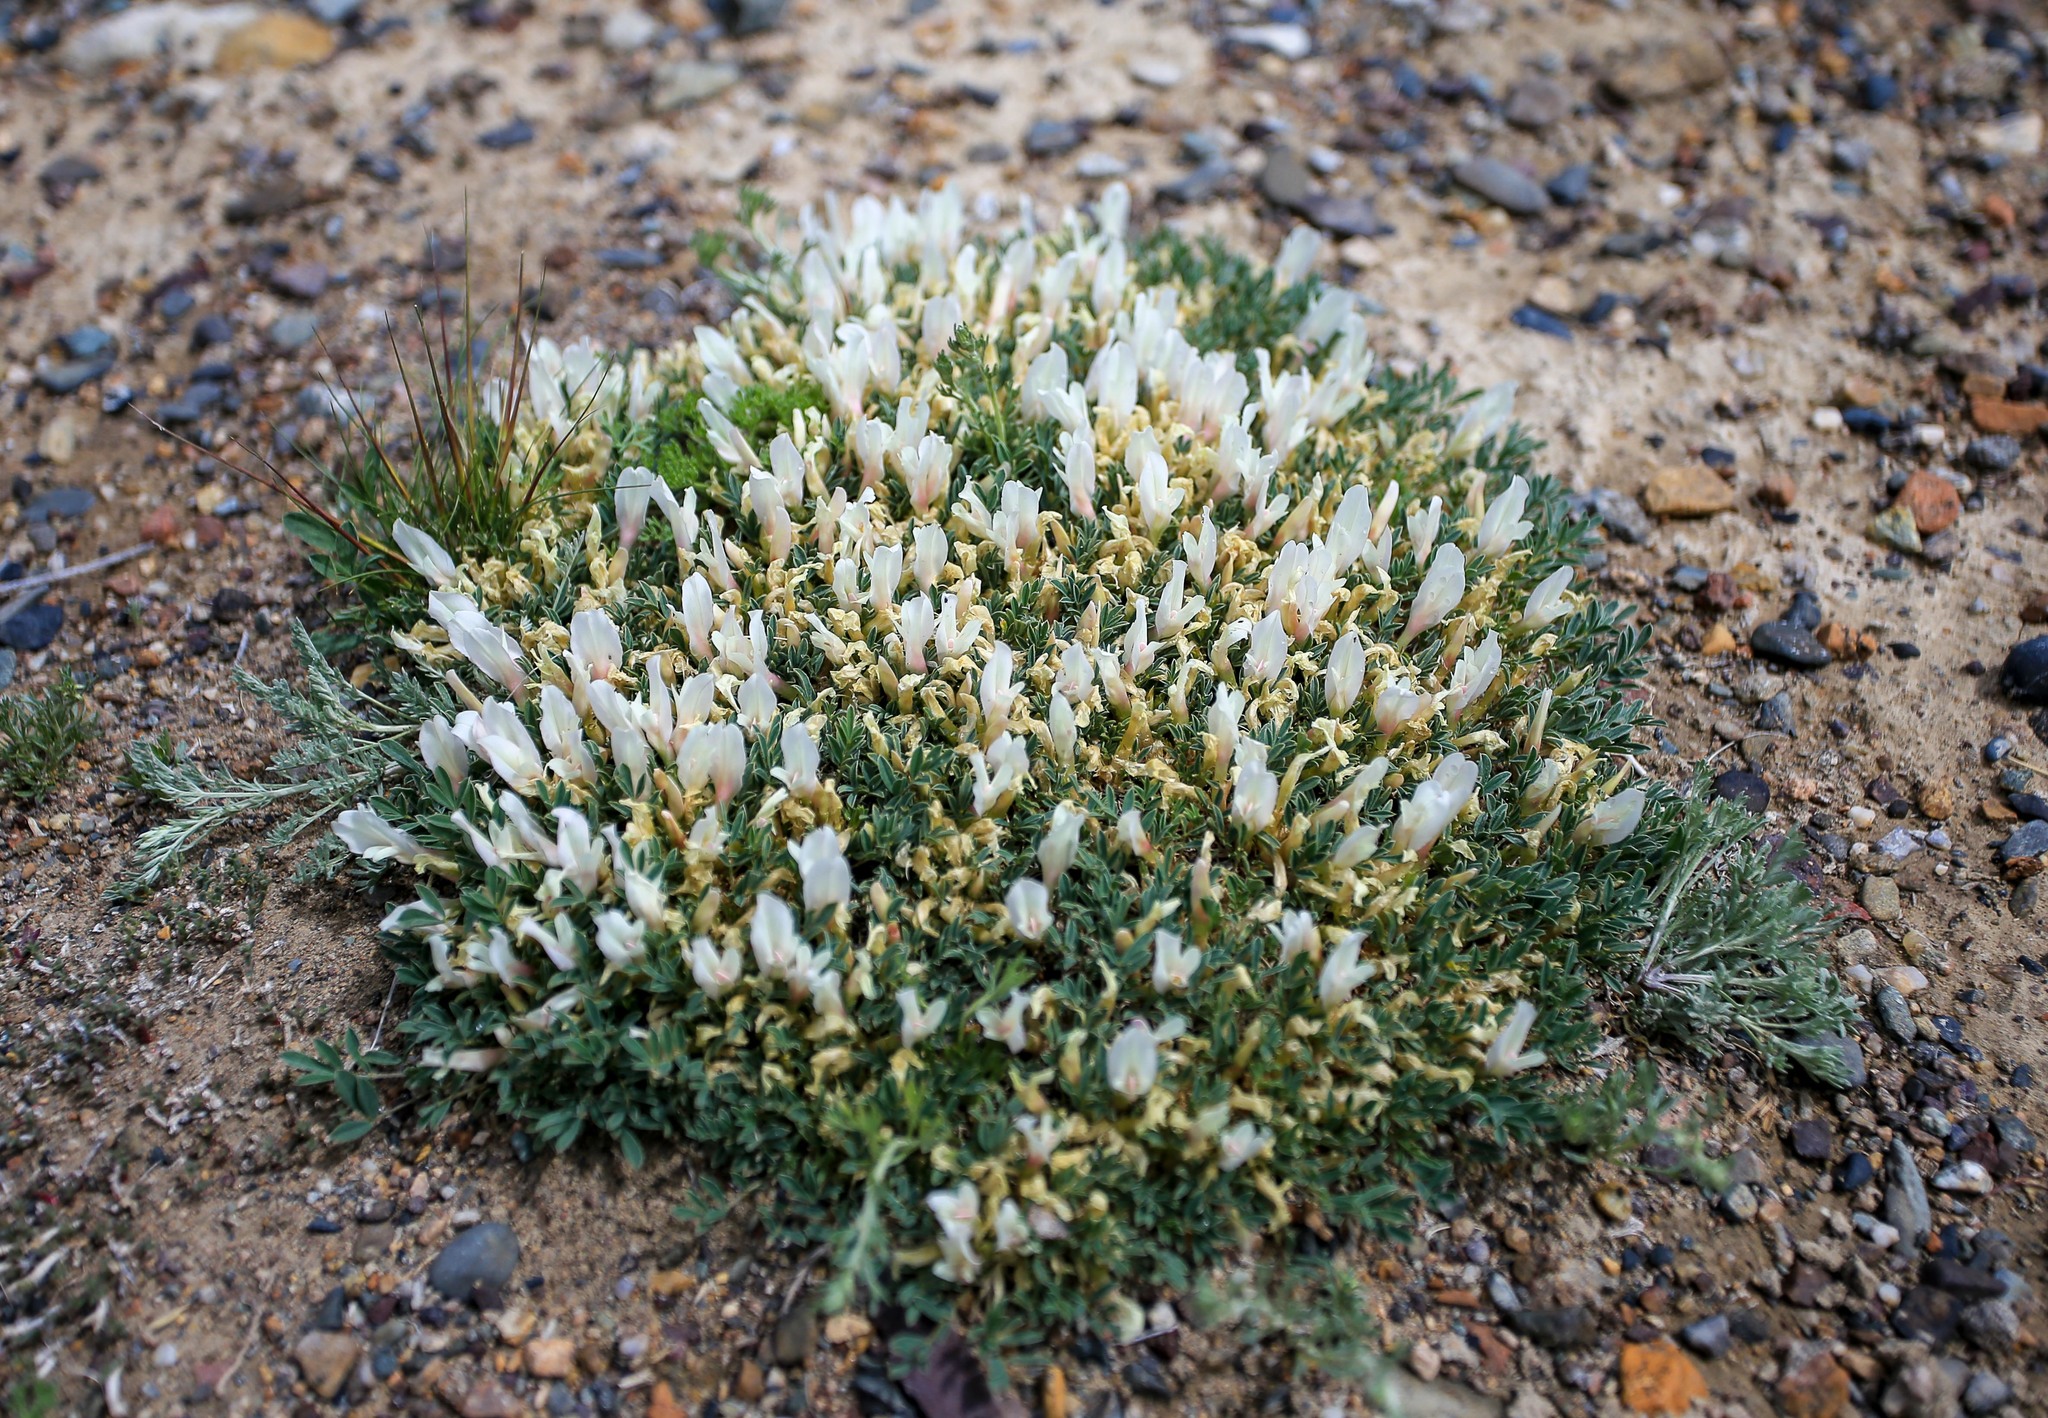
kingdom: Plantae
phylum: Tracheophyta
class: Magnoliopsida
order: Fabales
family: Fabaceae
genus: Astragalus
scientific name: Astragalus brevifolius
